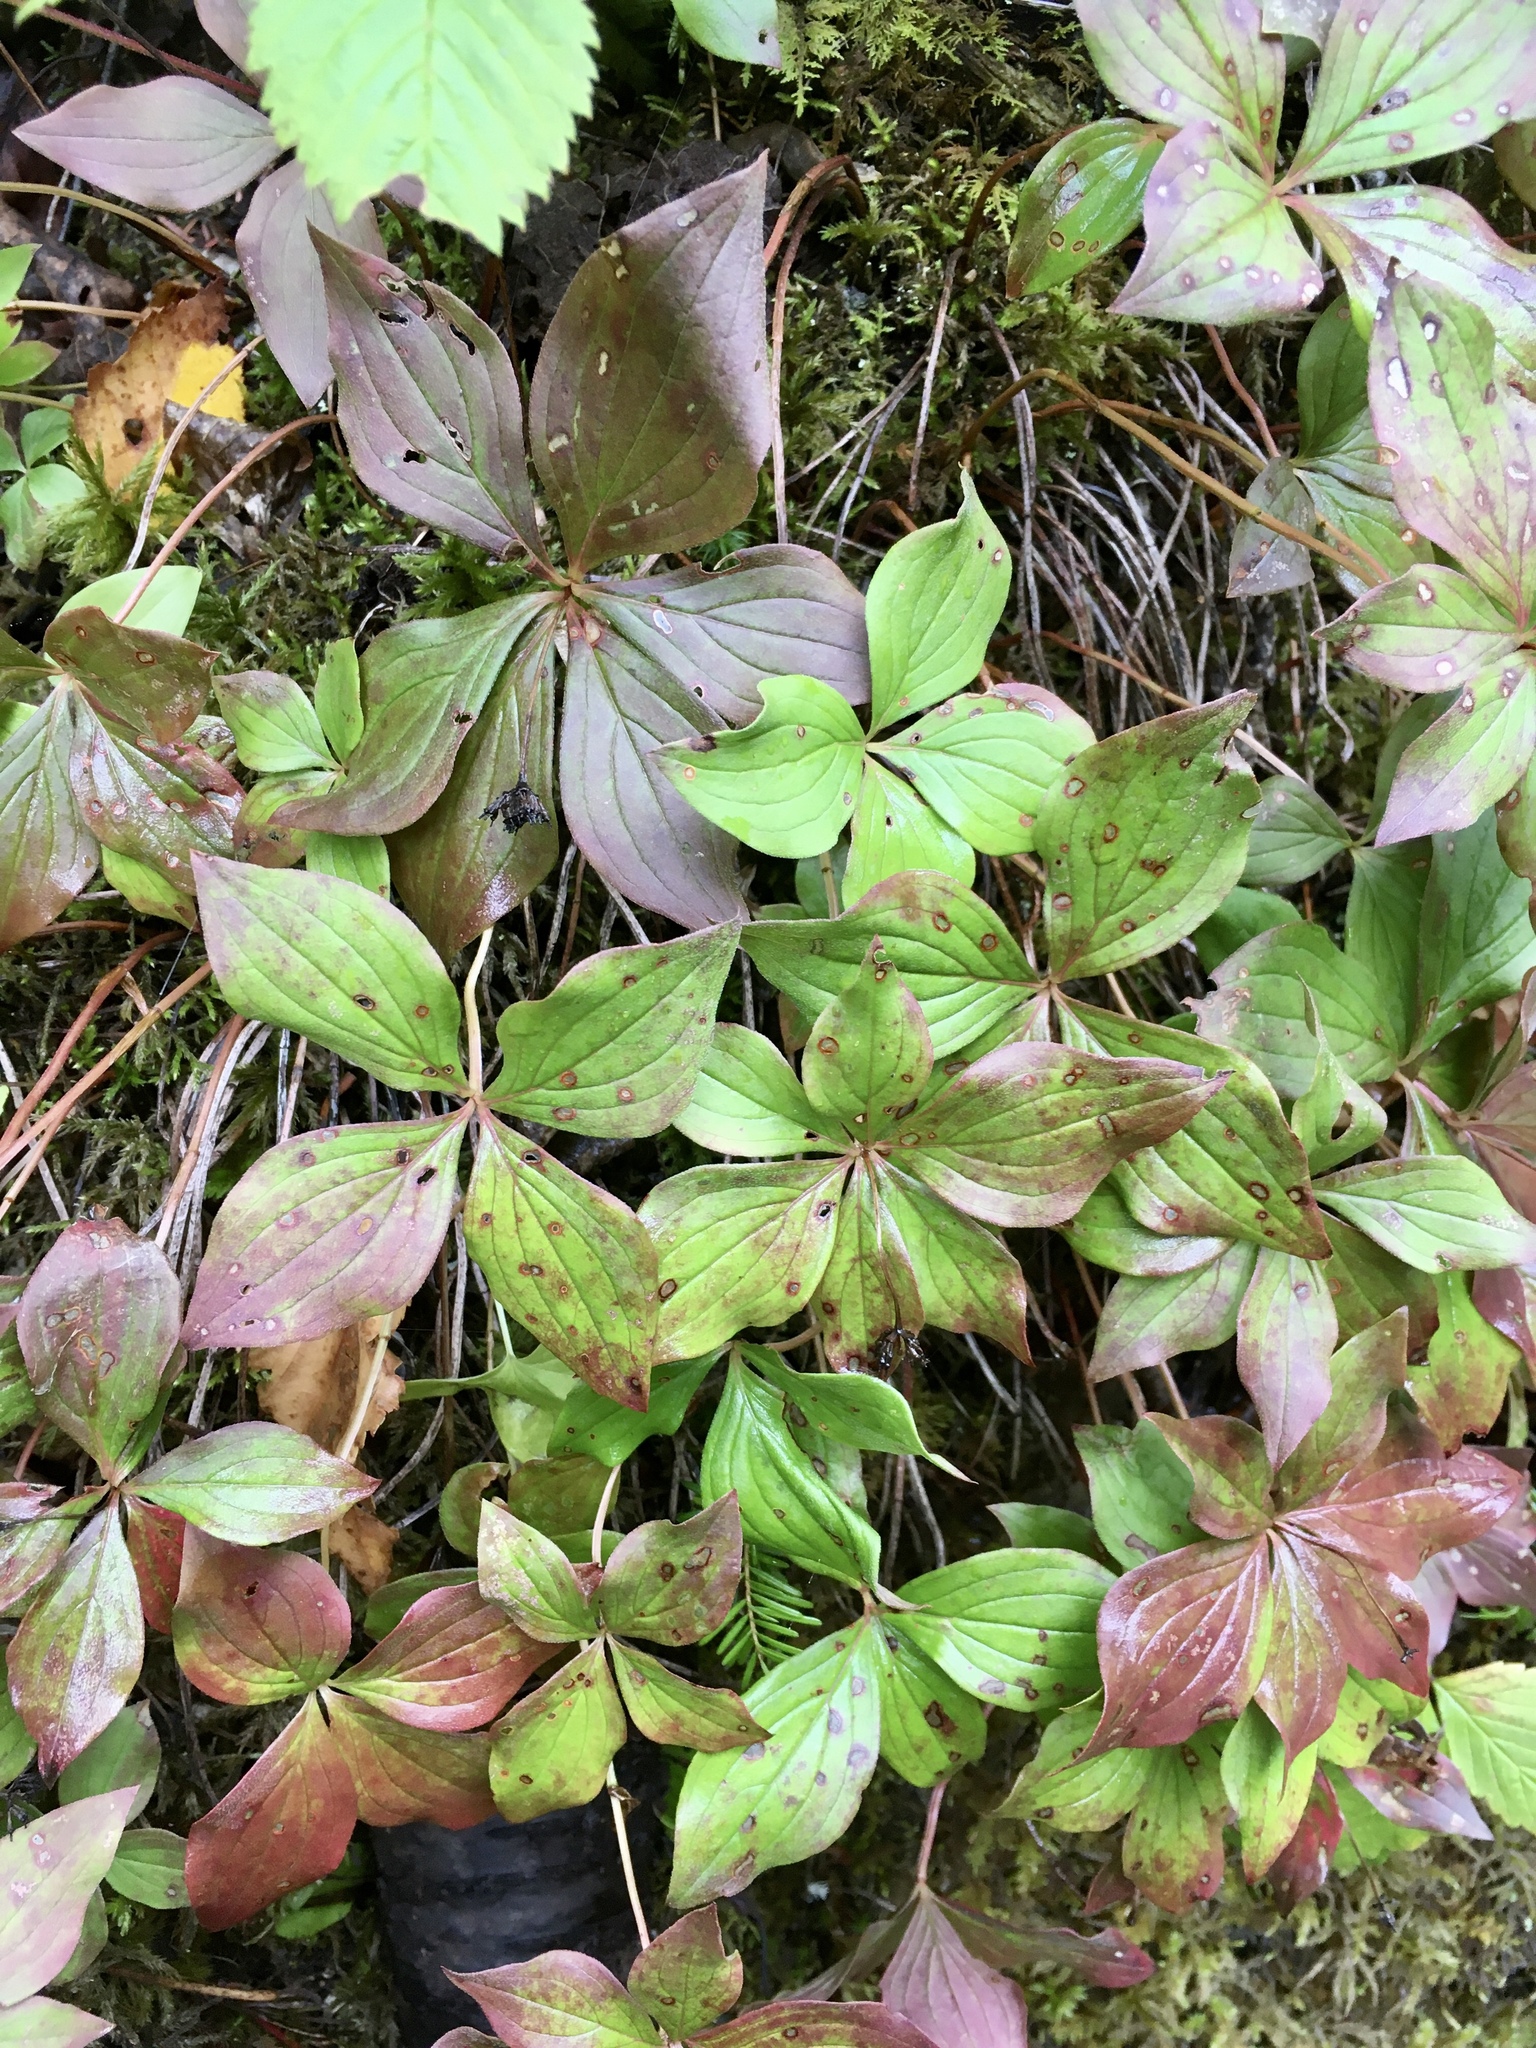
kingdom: Plantae
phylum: Tracheophyta
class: Magnoliopsida
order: Cornales
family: Cornaceae
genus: Cornus
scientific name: Cornus canadensis
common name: Creeping dogwood
